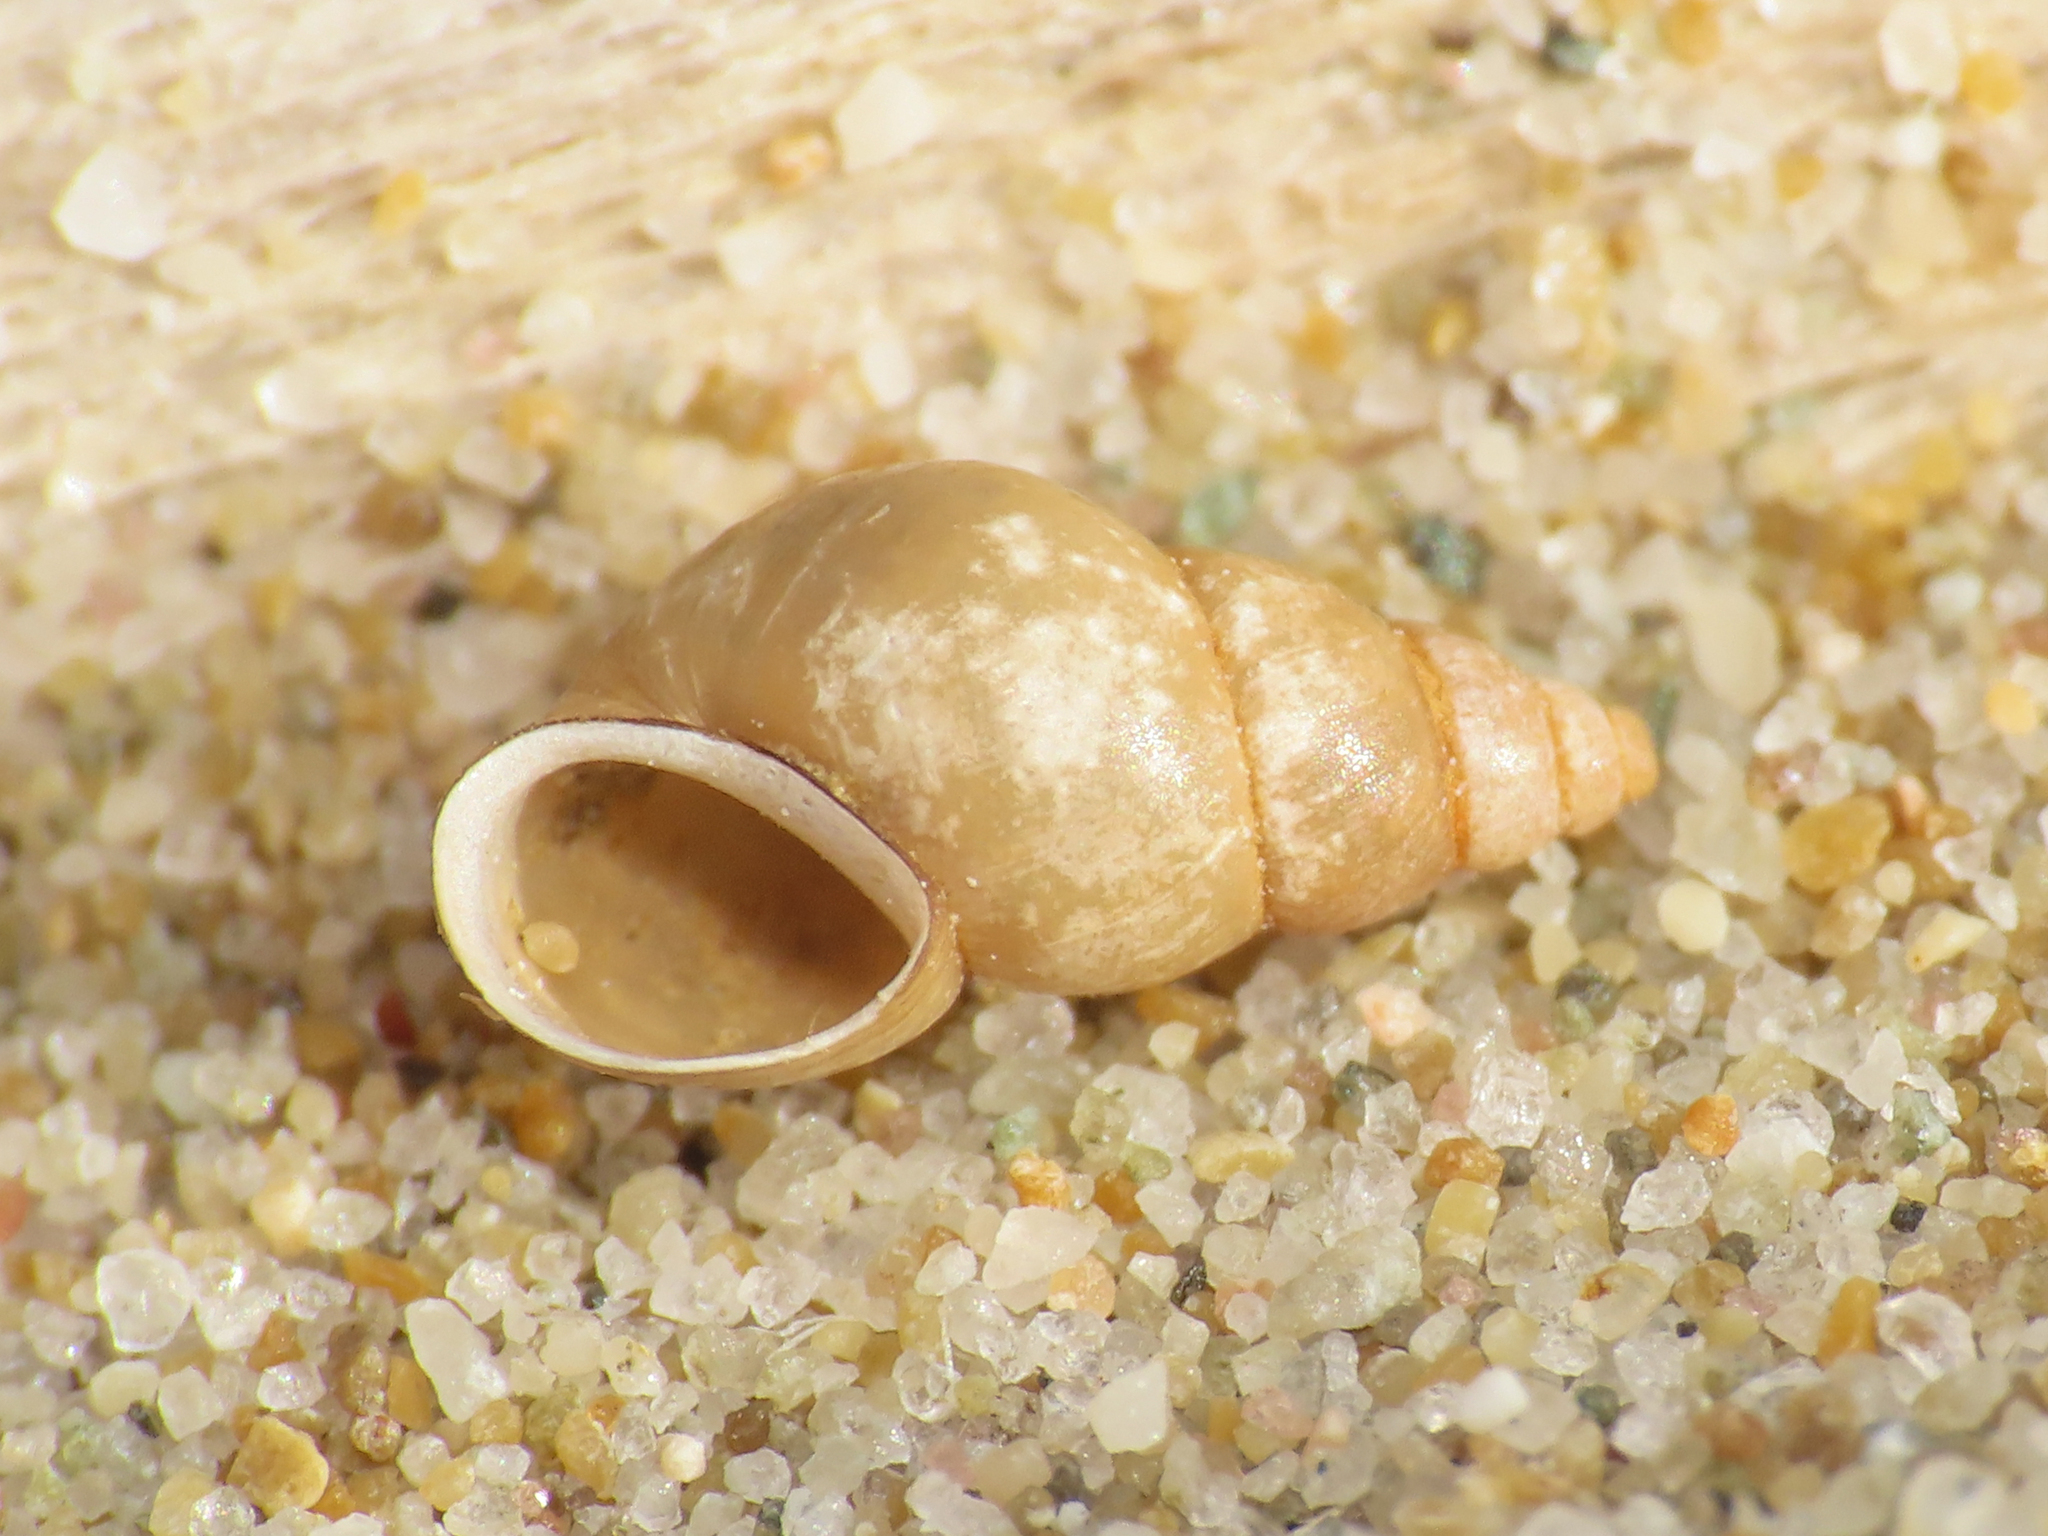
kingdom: Animalia
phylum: Mollusca
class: Gastropoda
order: Littorinimorpha
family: Tateidae
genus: Potamopyrgus
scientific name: Potamopyrgus antipodarum
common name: Jenkins' spire snail
